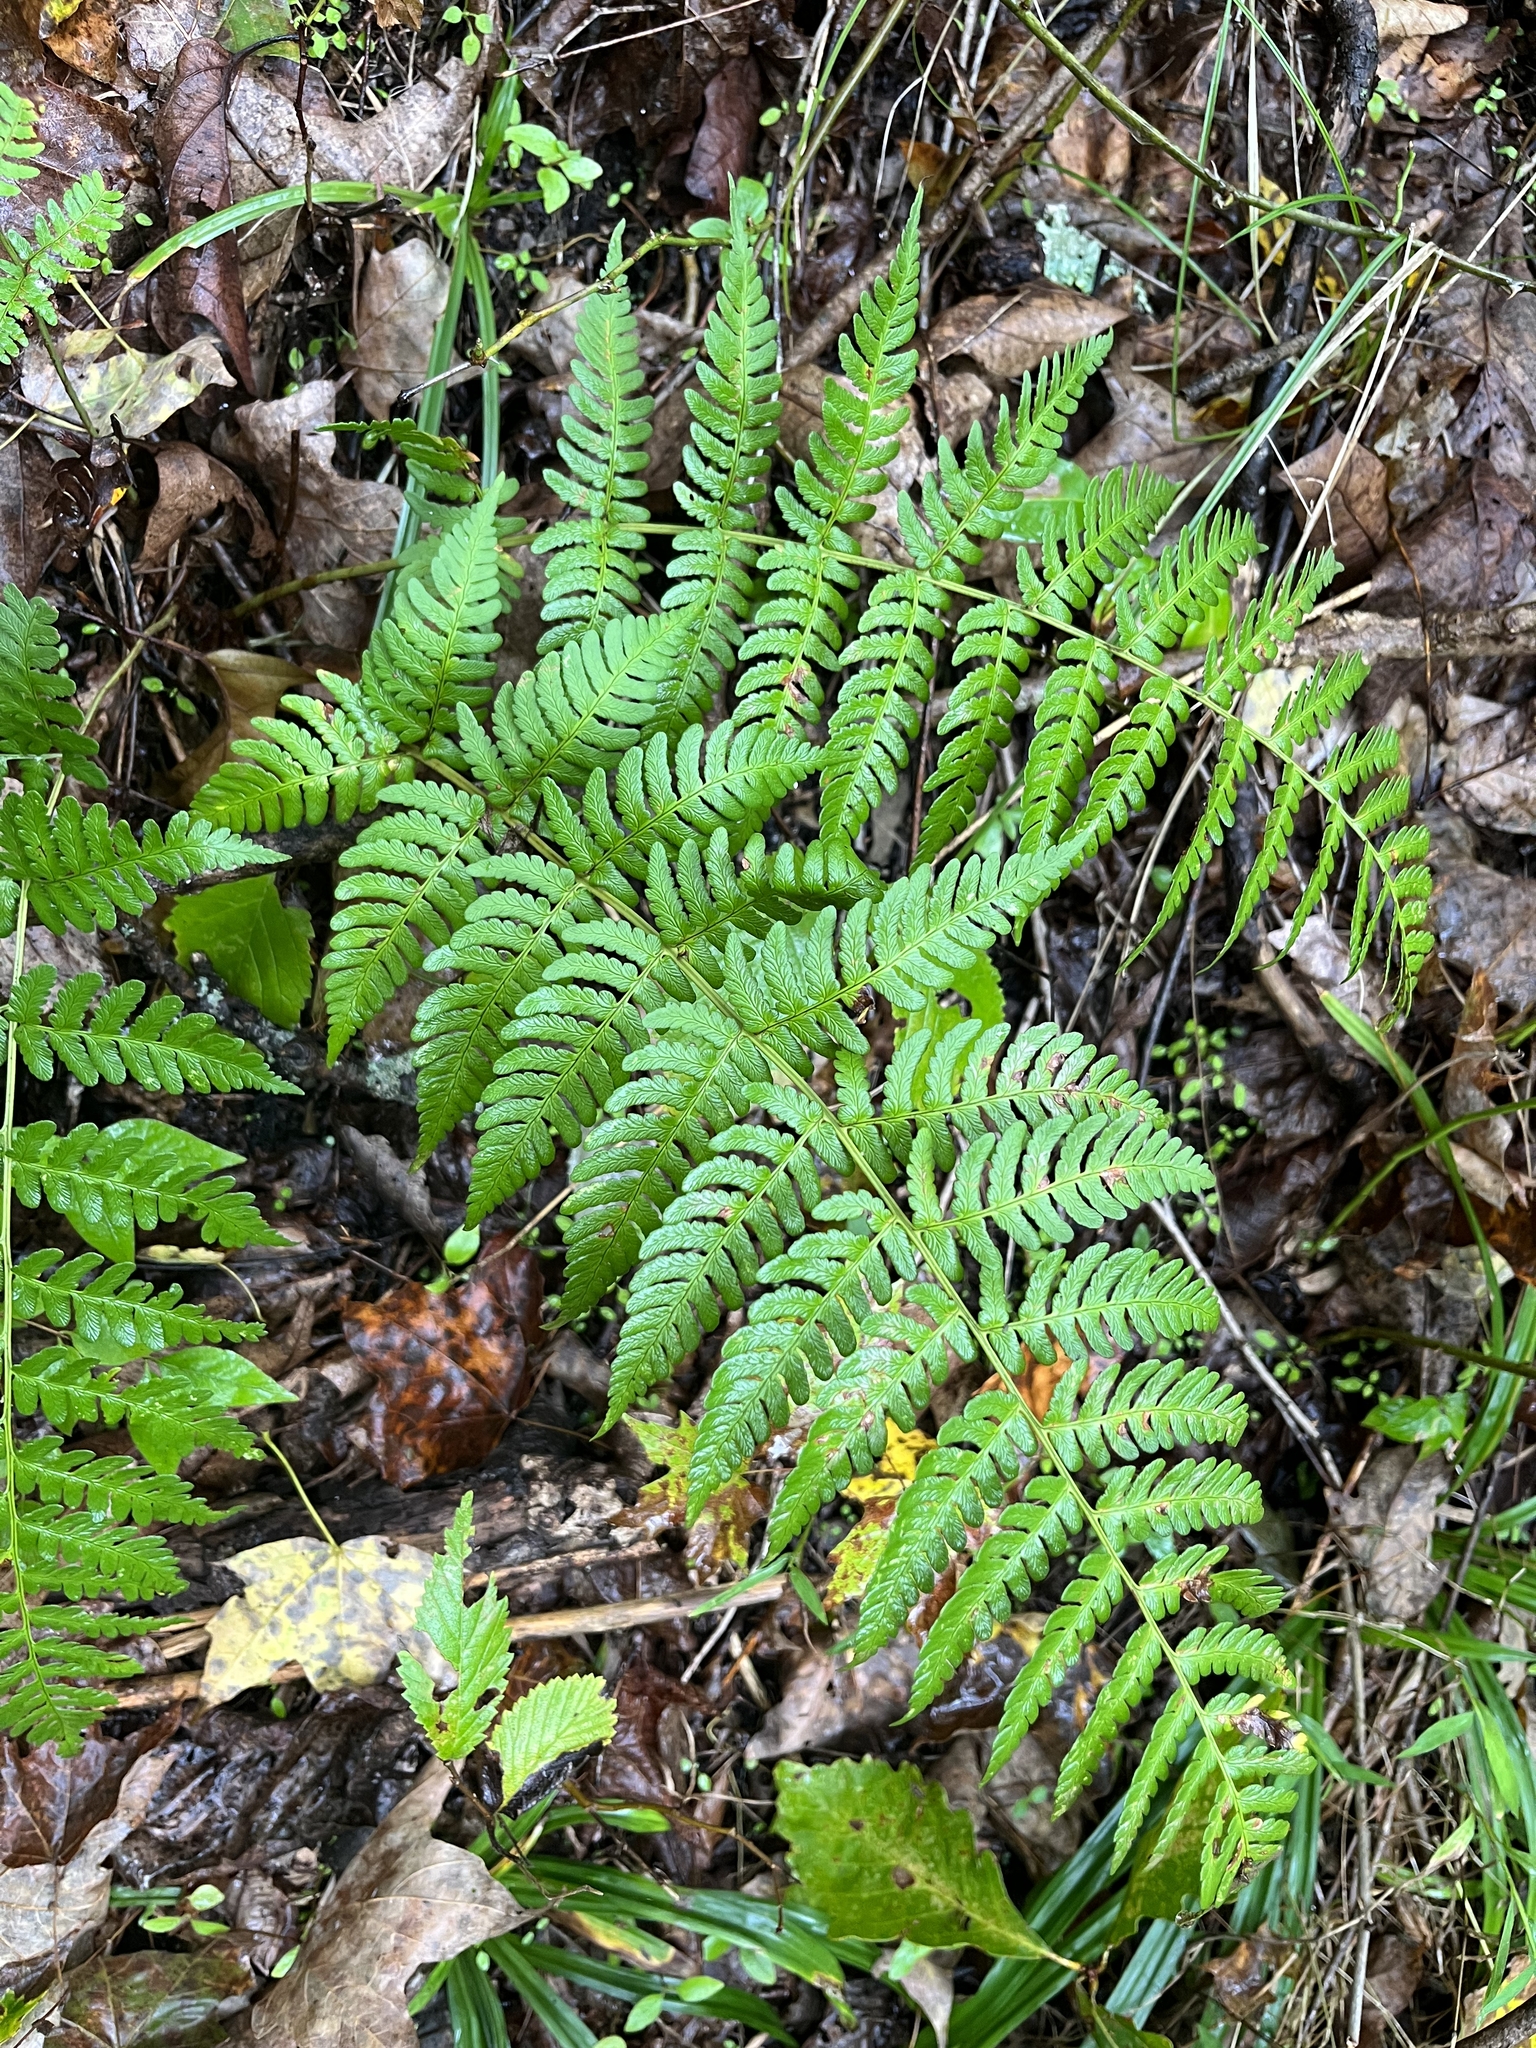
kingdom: Plantae
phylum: Tracheophyta
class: Polypodiopsida
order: Polypodiales
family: Dryopteridaceae
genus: Dryopteris
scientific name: Dryopteris marginalis
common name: Marginal wood fern
